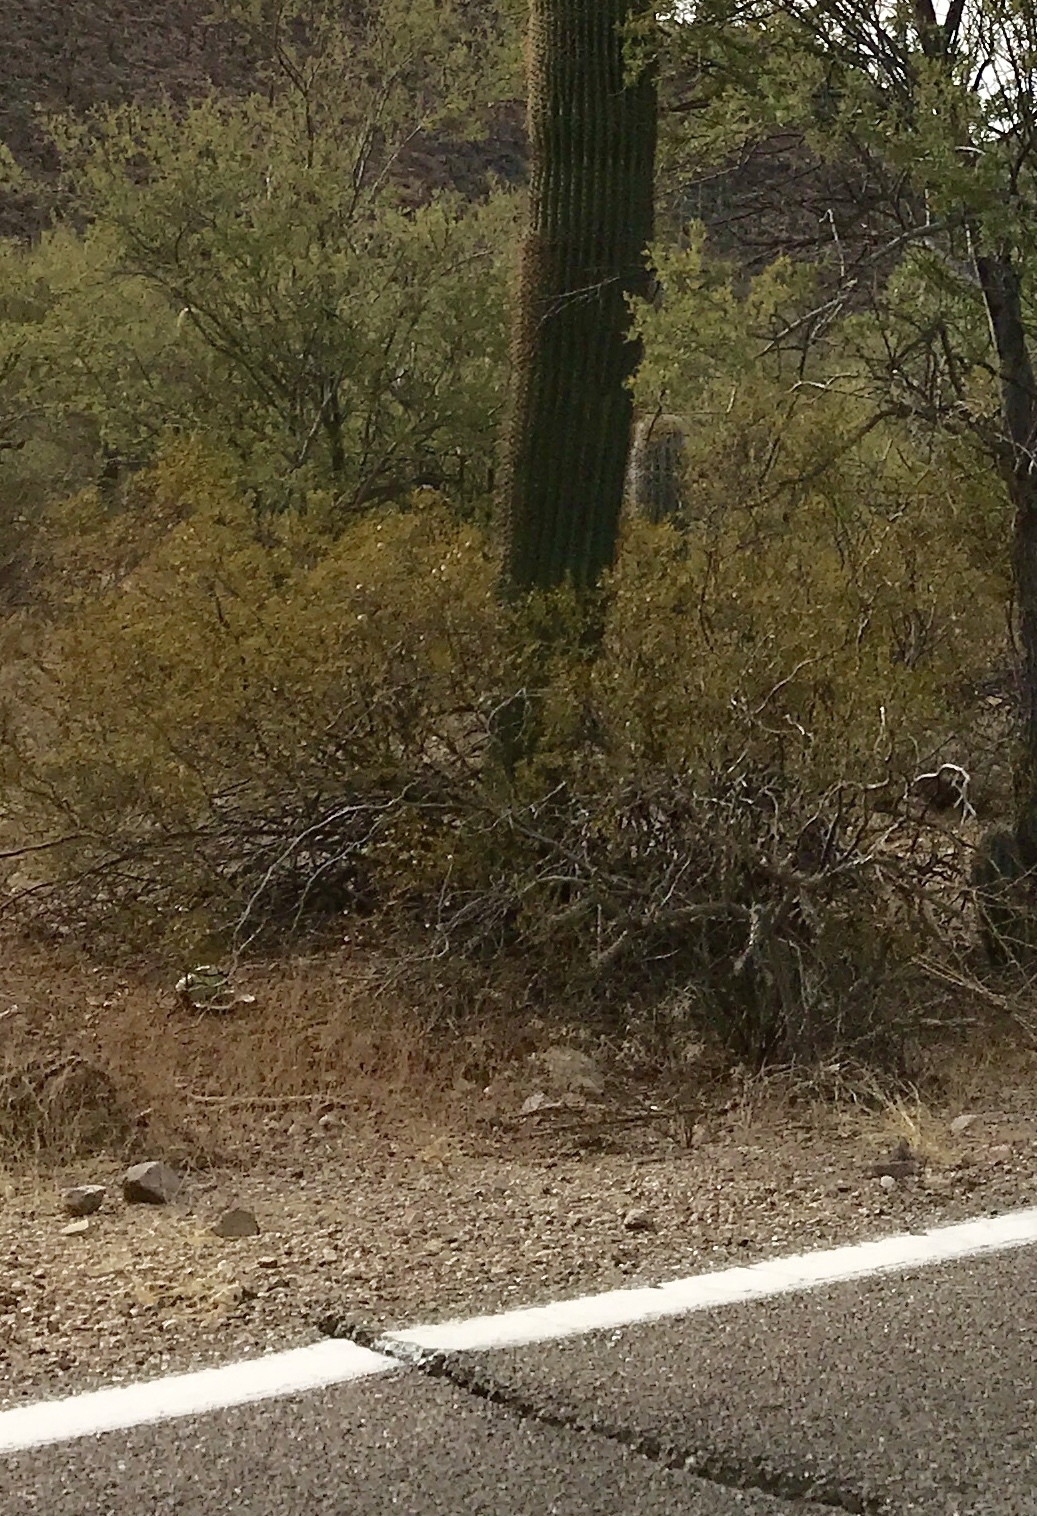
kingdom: Plantae
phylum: Tracheophyta
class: Magnoliopsida
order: Zygophyllales
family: Zygophyllaceae
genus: Larrea
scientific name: Larrea tridentata
